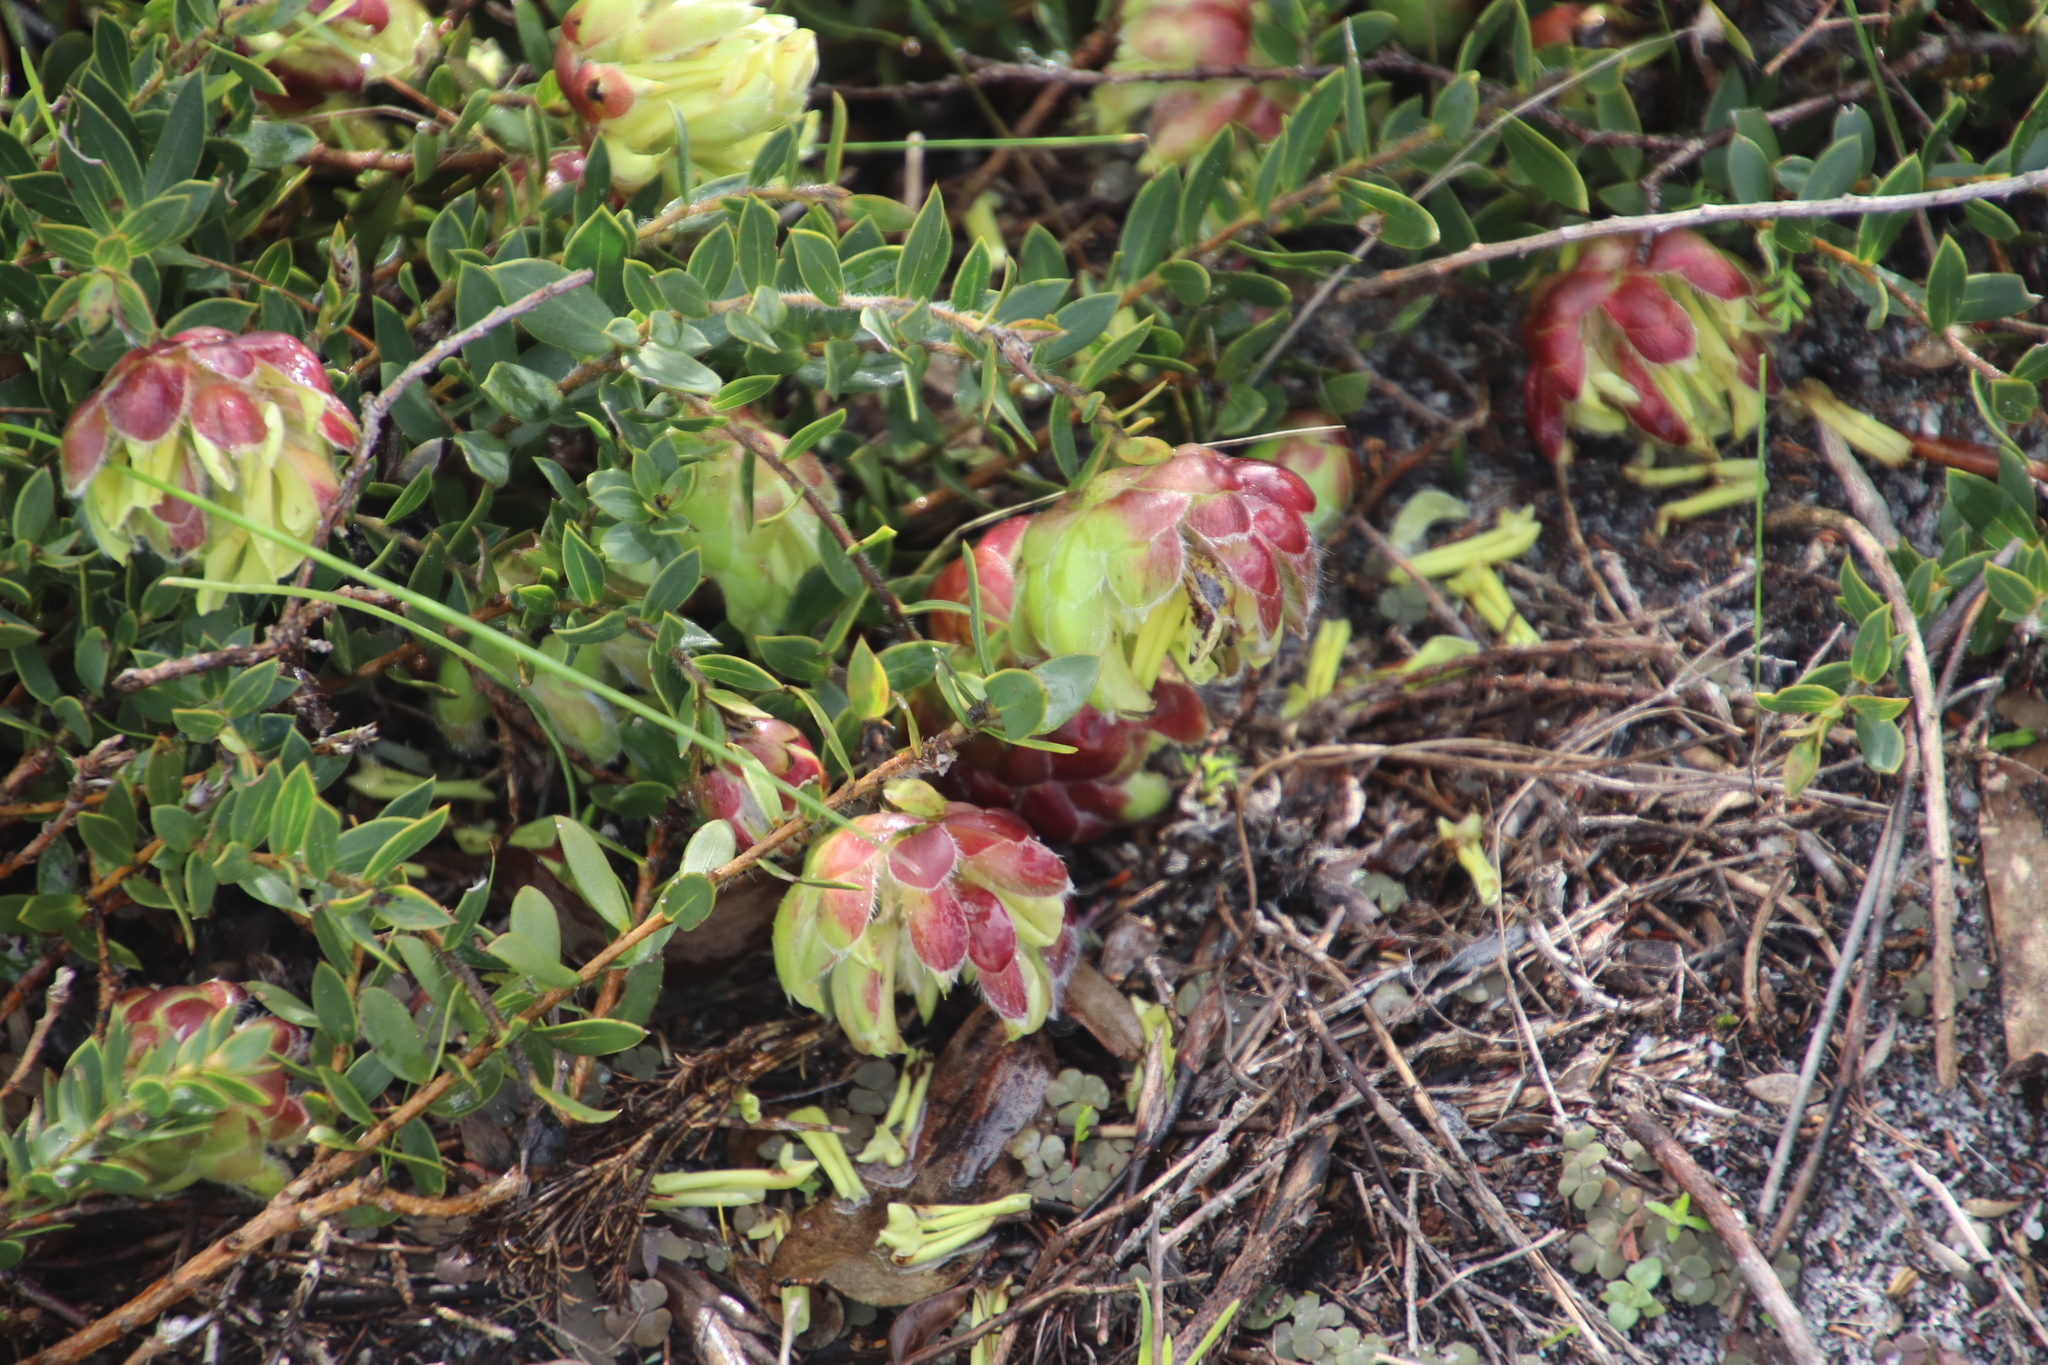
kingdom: Plantae
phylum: Tracheophyta
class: Magnoliopsida
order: Fabales
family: Fabaceae
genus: Liparia
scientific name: Liparia parva
